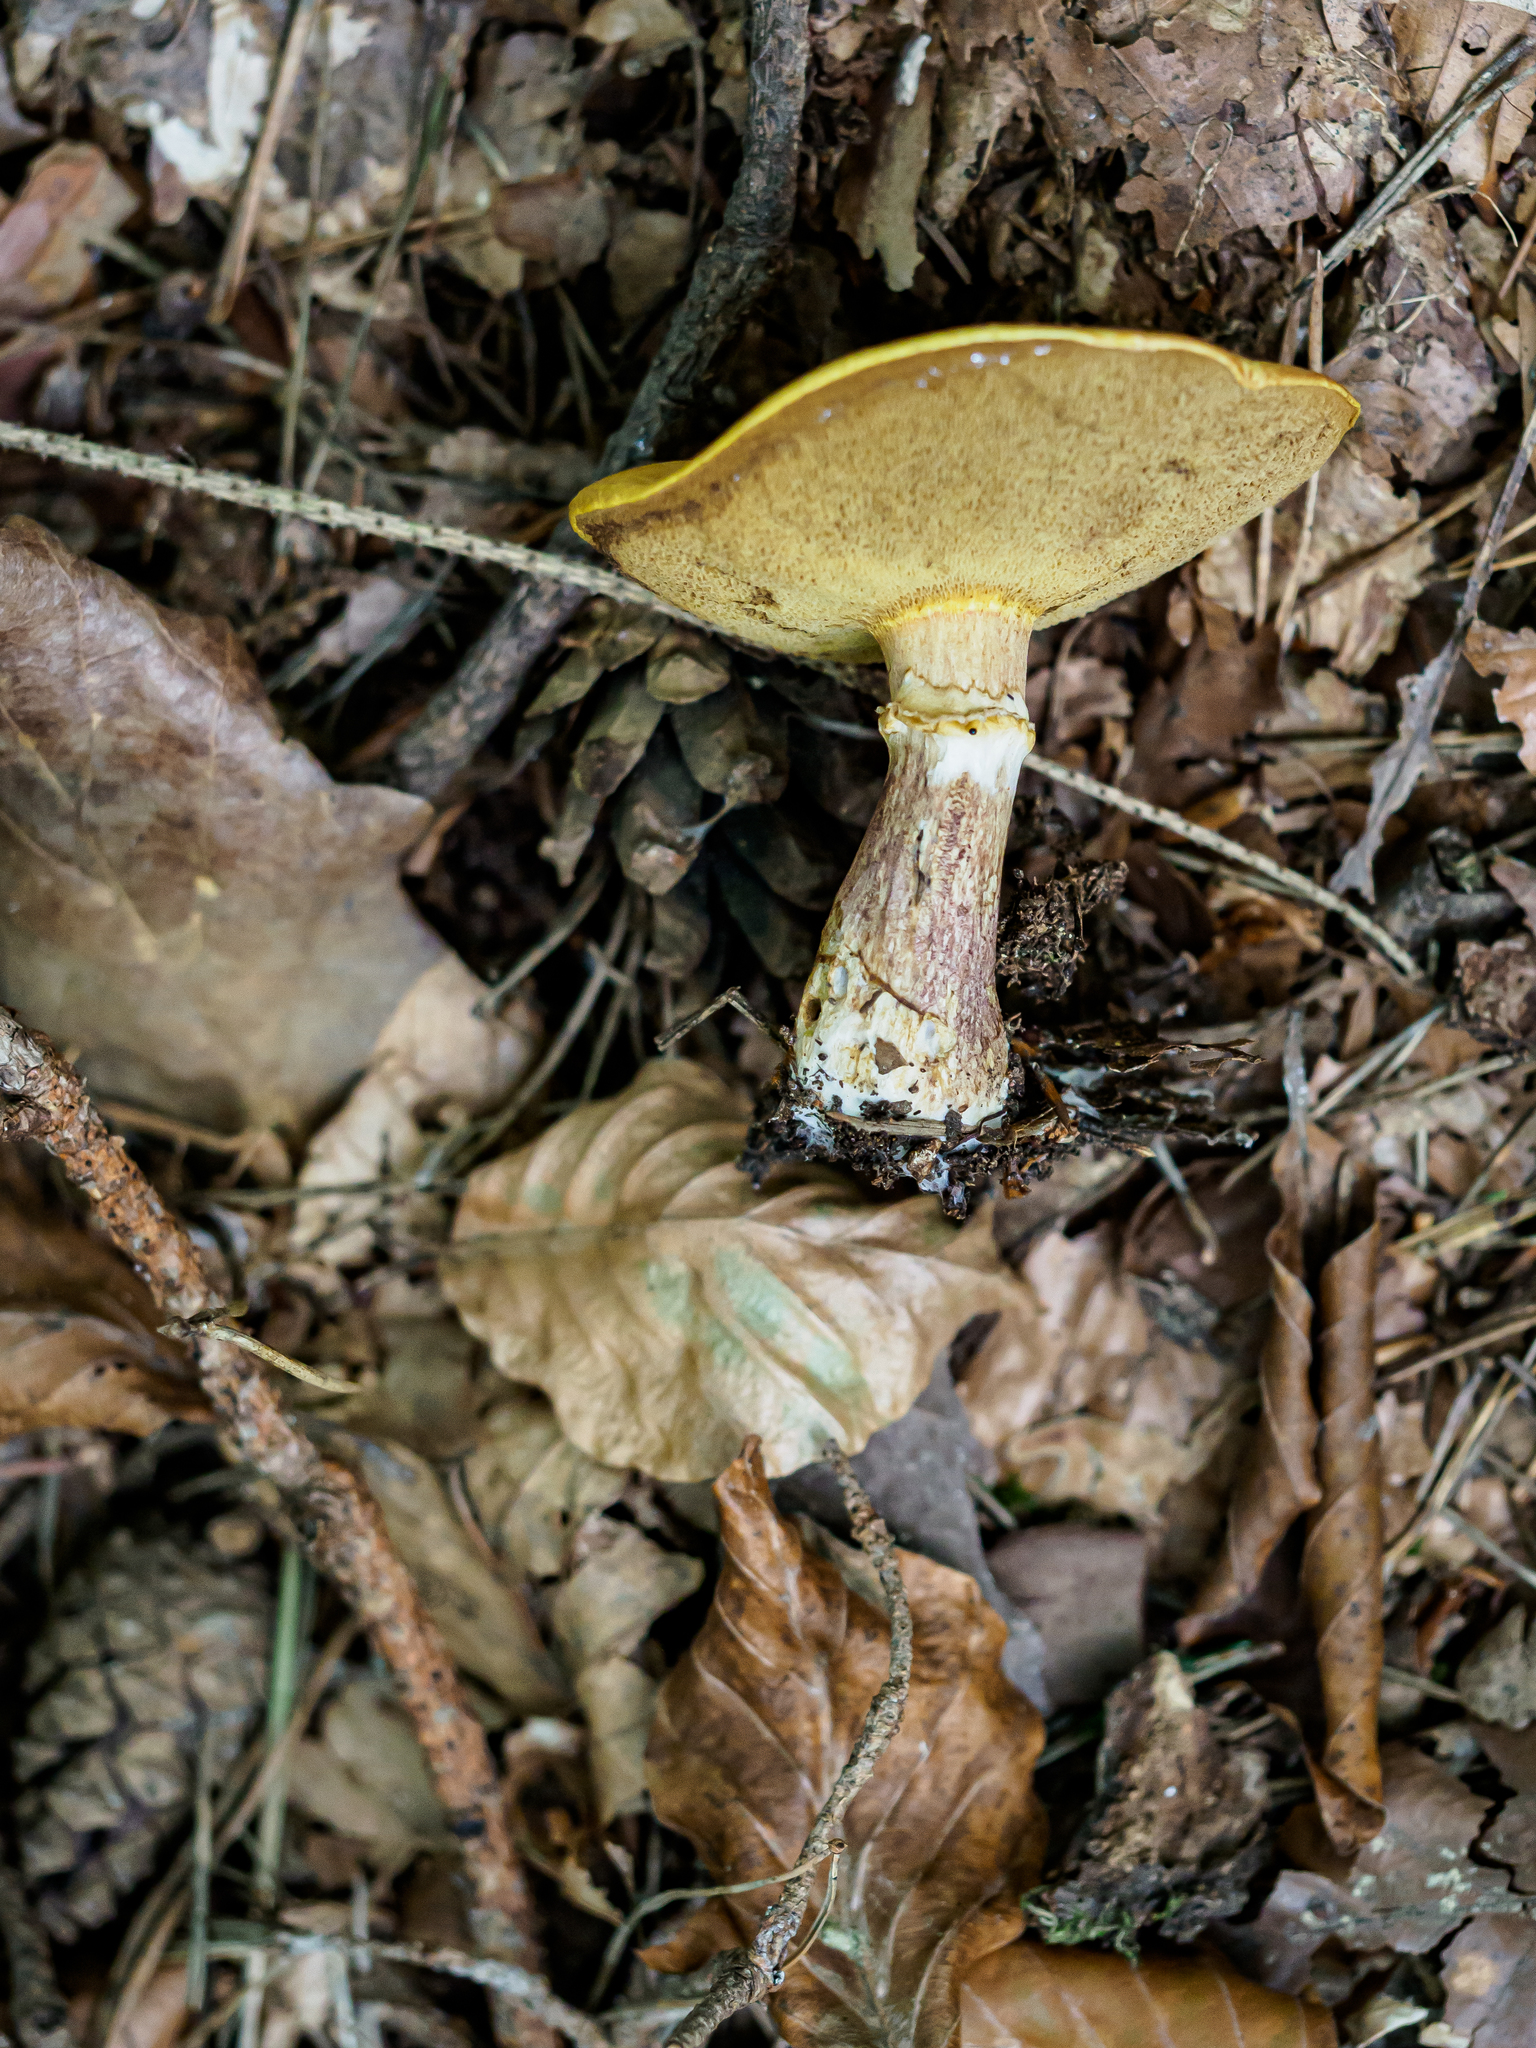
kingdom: Fungi
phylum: Basidiomycota
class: Agaricomycetes
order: Boletales
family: Suillaceae
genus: Suillus
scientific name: Suillus grevillei
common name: Larch bolete
